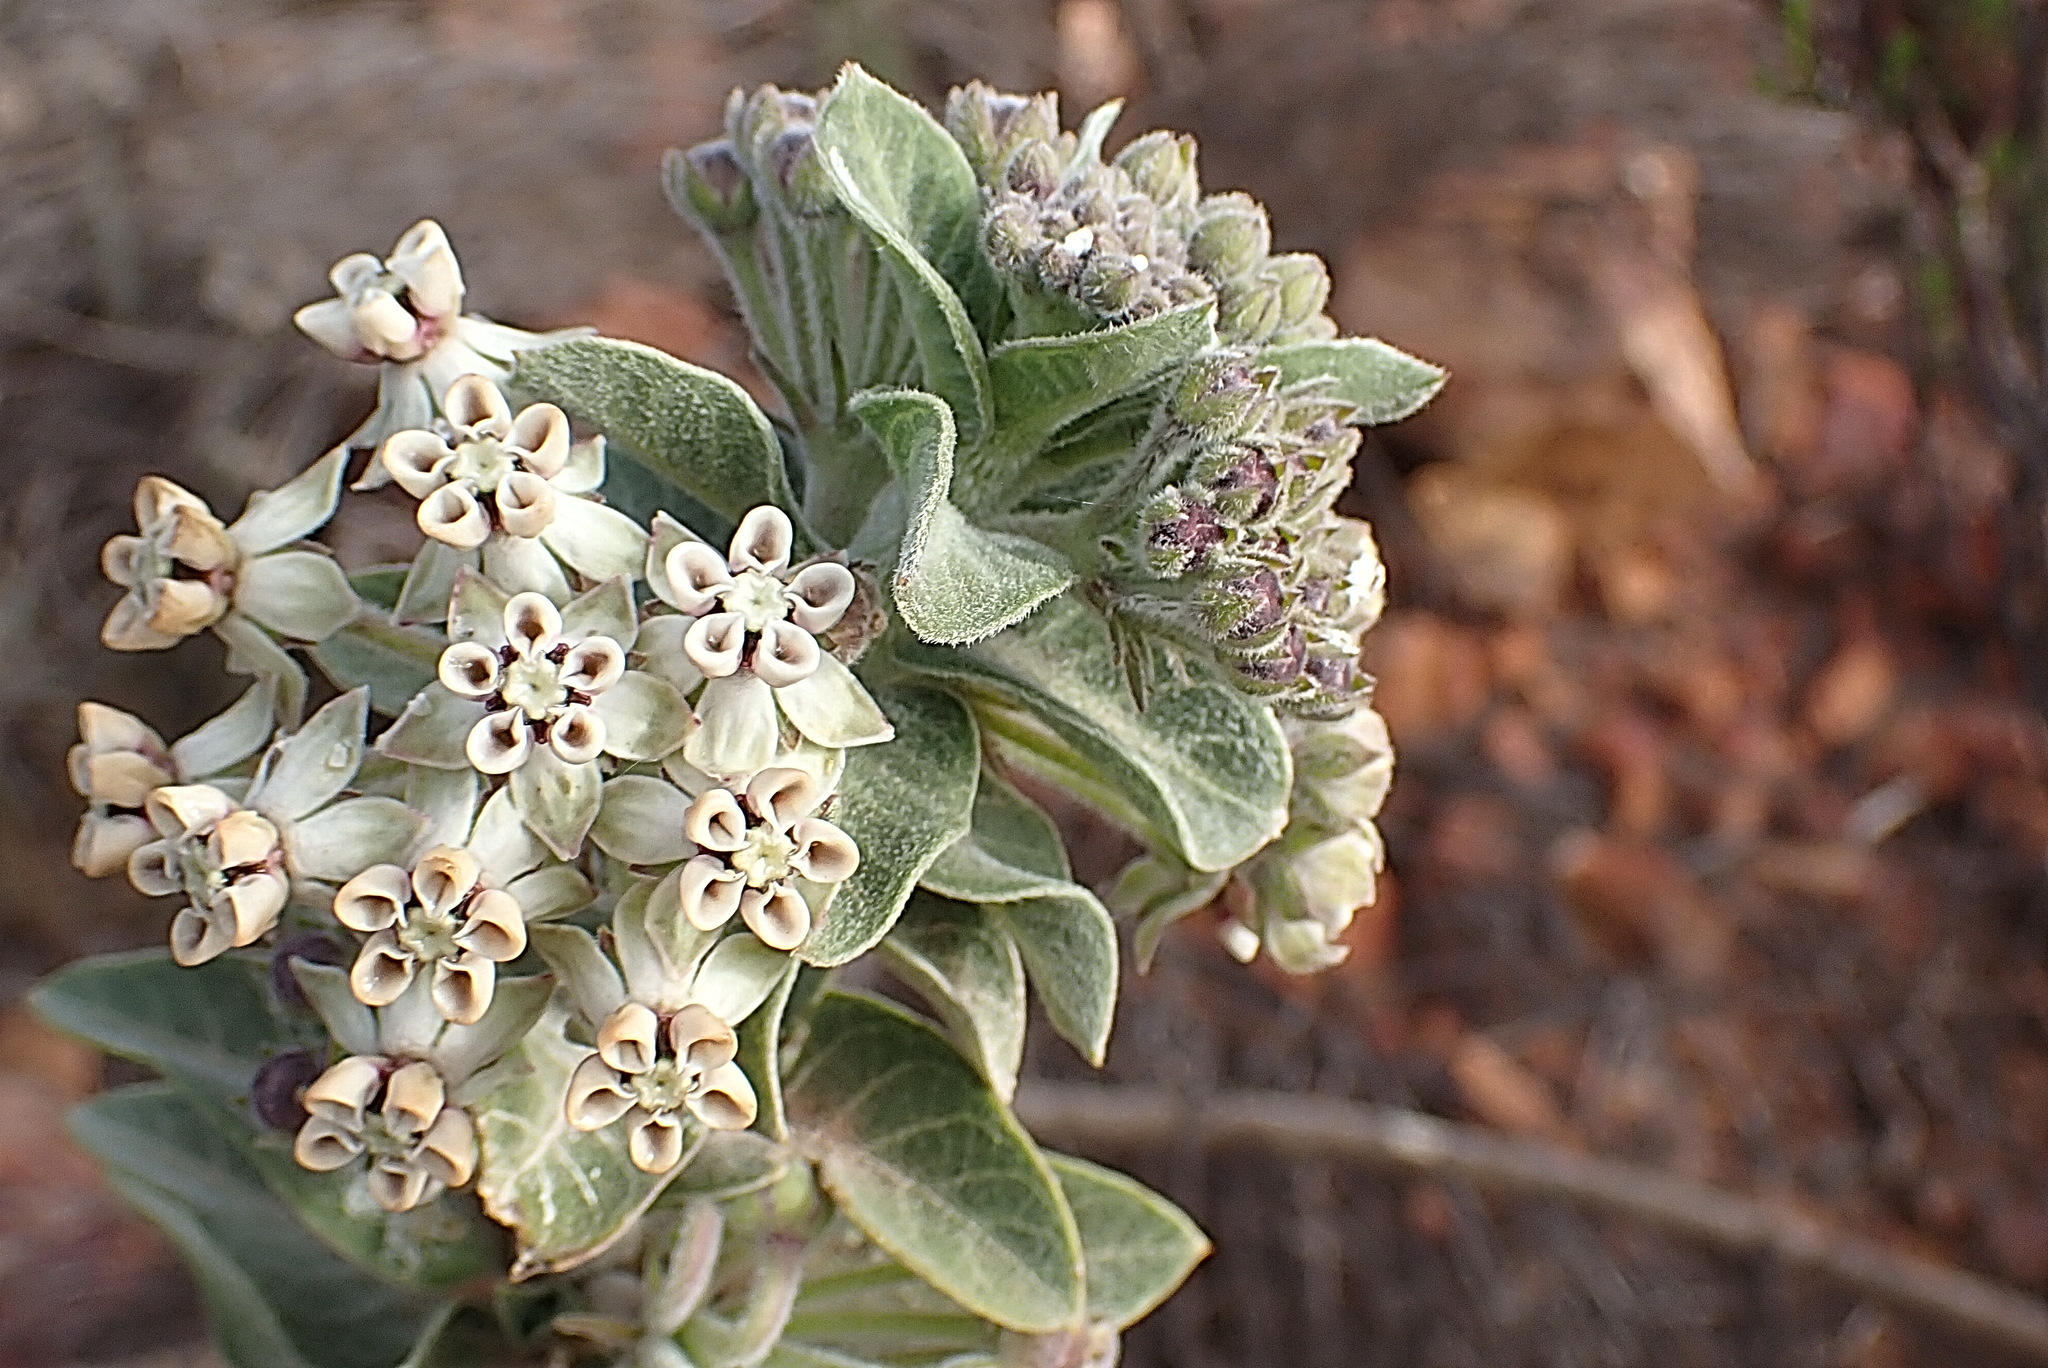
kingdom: Plantae
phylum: Tracheophyta
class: Magnoliopsida
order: Gentianales
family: Apocynaceae
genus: Gomphocarpus
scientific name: Gomphocarpus cancellatus
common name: Wild cotton
